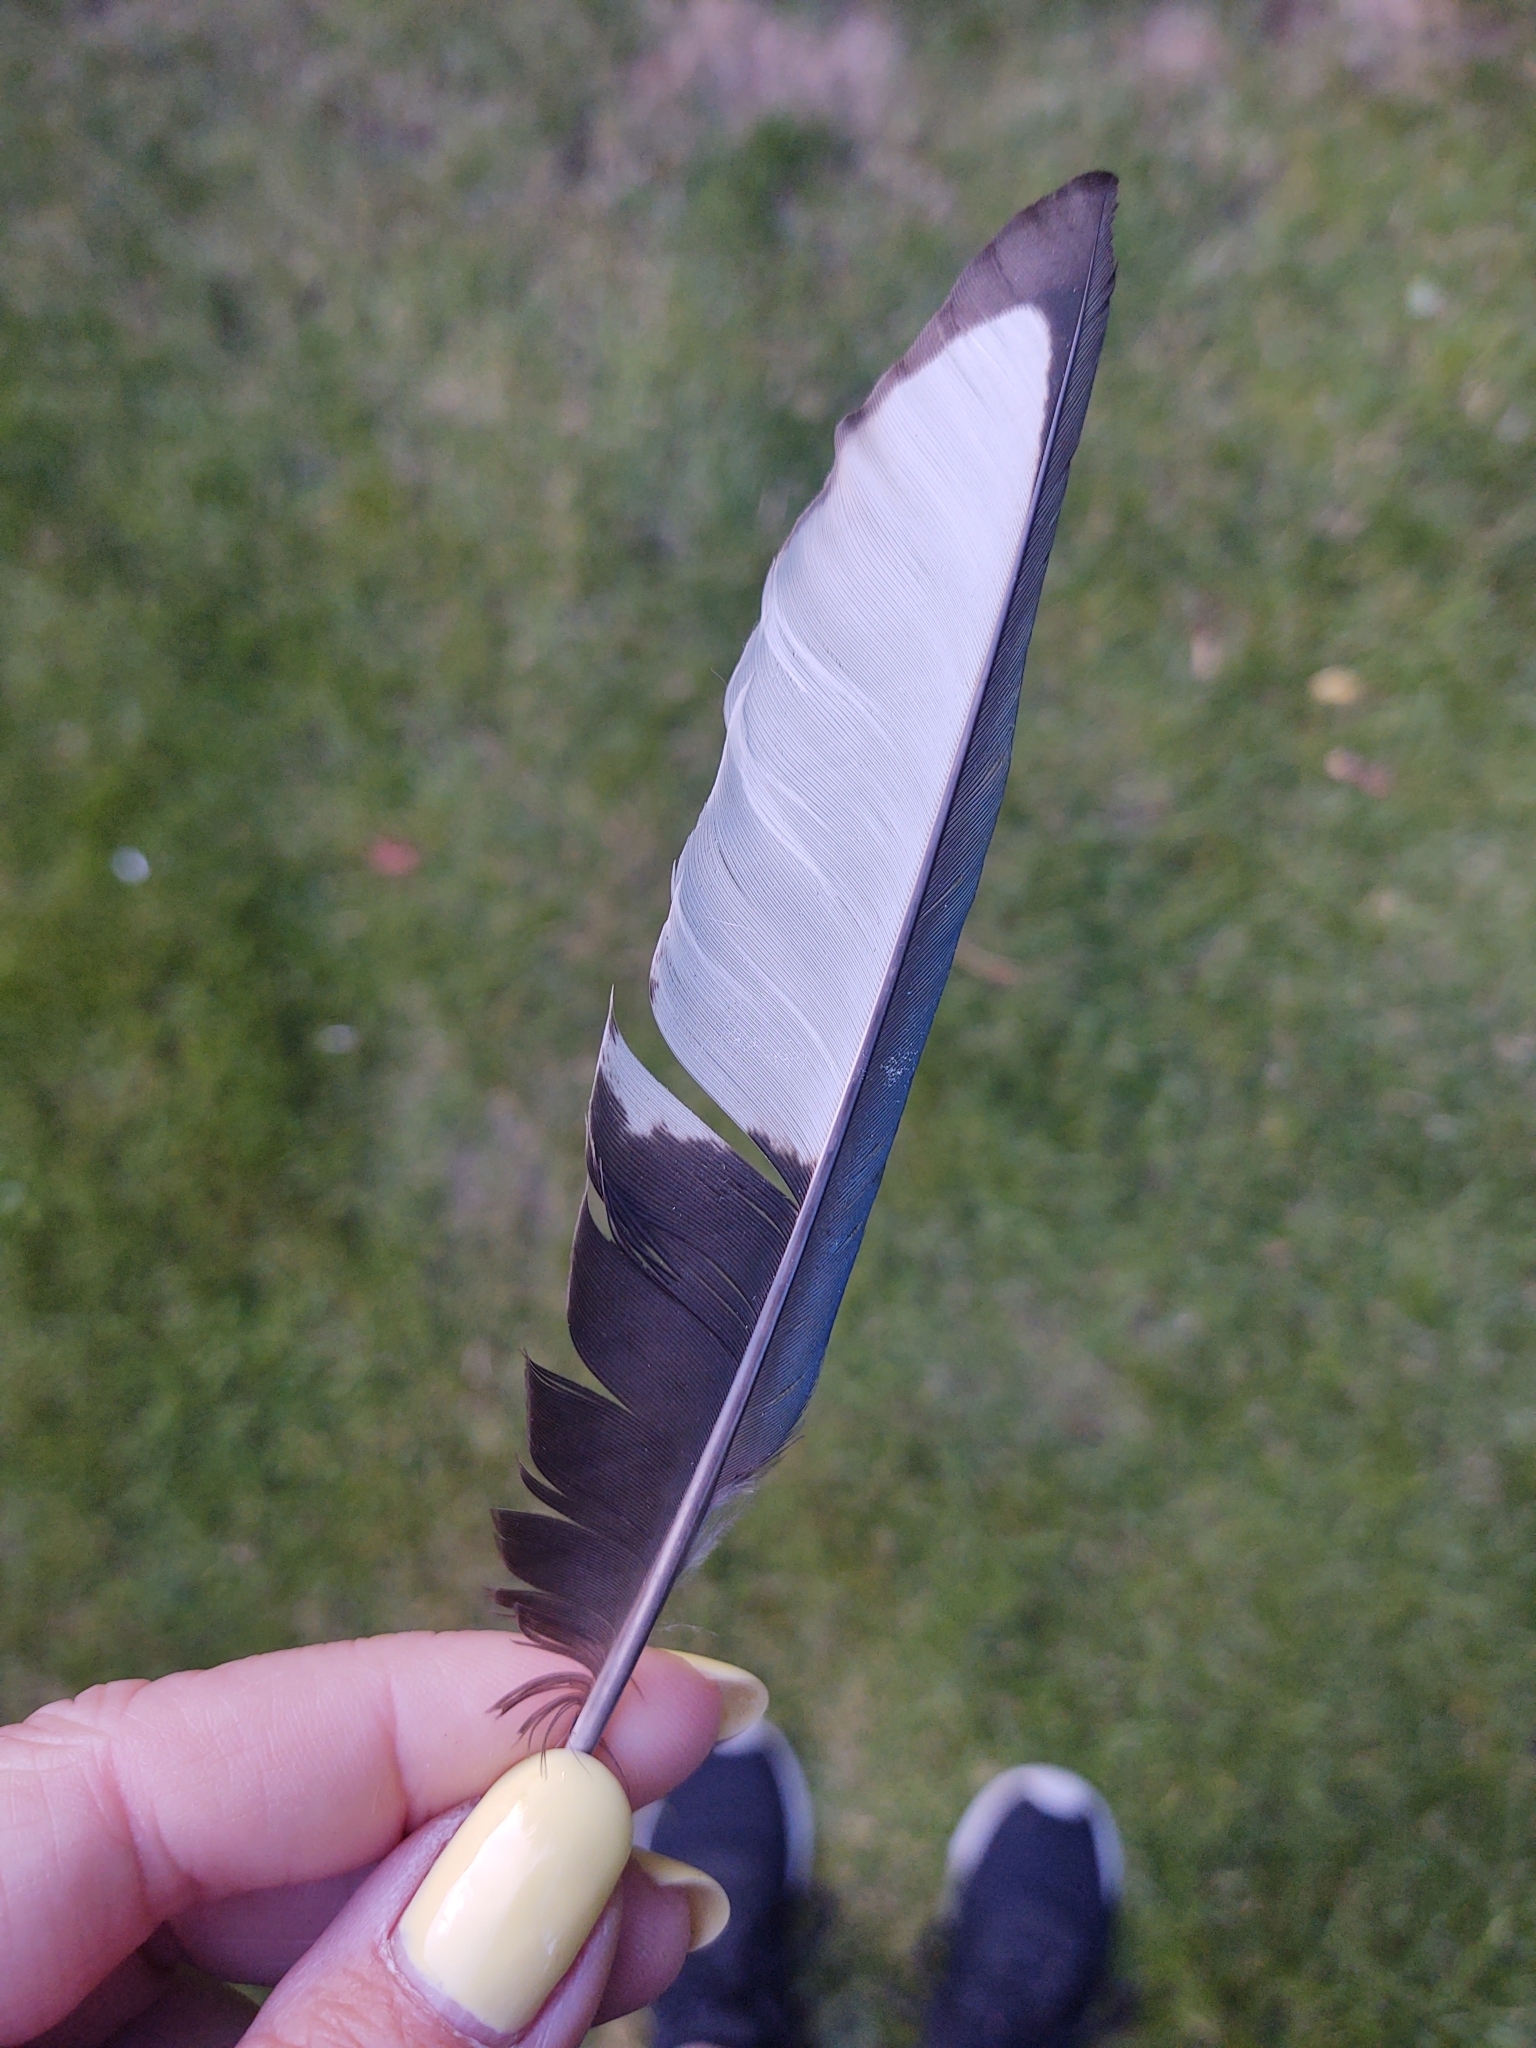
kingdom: Animalia
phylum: Chordata
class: Aves
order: Passeriformes
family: Corvidae
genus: Pica
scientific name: Pica pica
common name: Eurasian magpie
